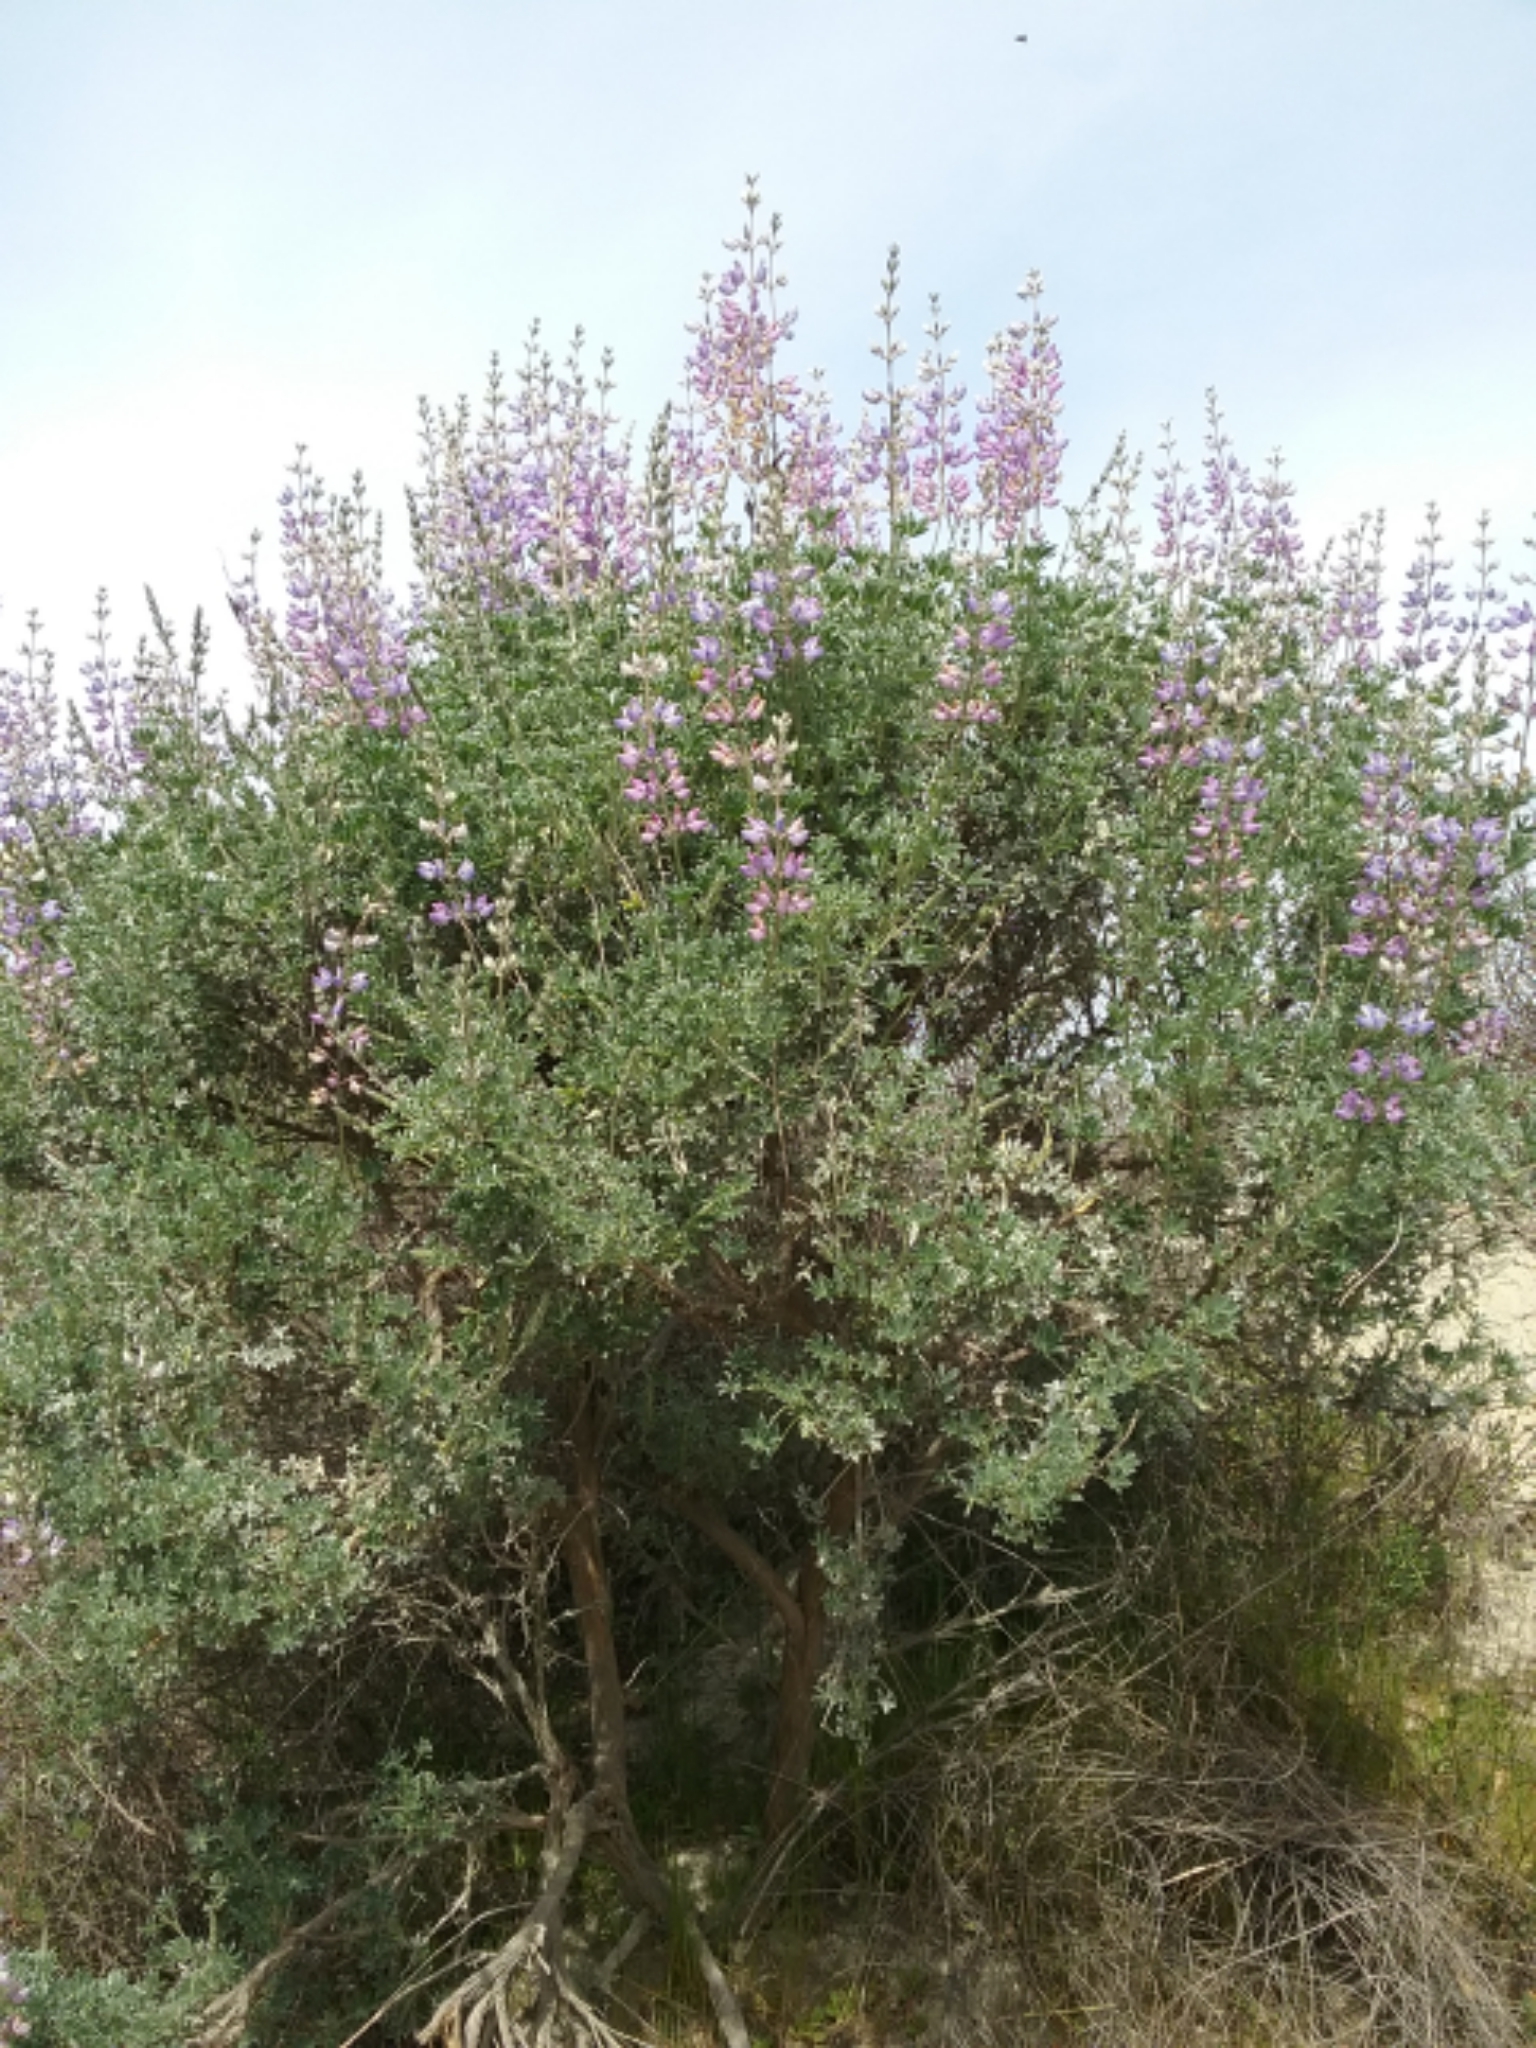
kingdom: Plantae
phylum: Tracheophyta
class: Magnoliopsida
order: Fabales
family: Fabaceae
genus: Lupinus
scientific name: Lupinus albifrons
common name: Foothill lupine
